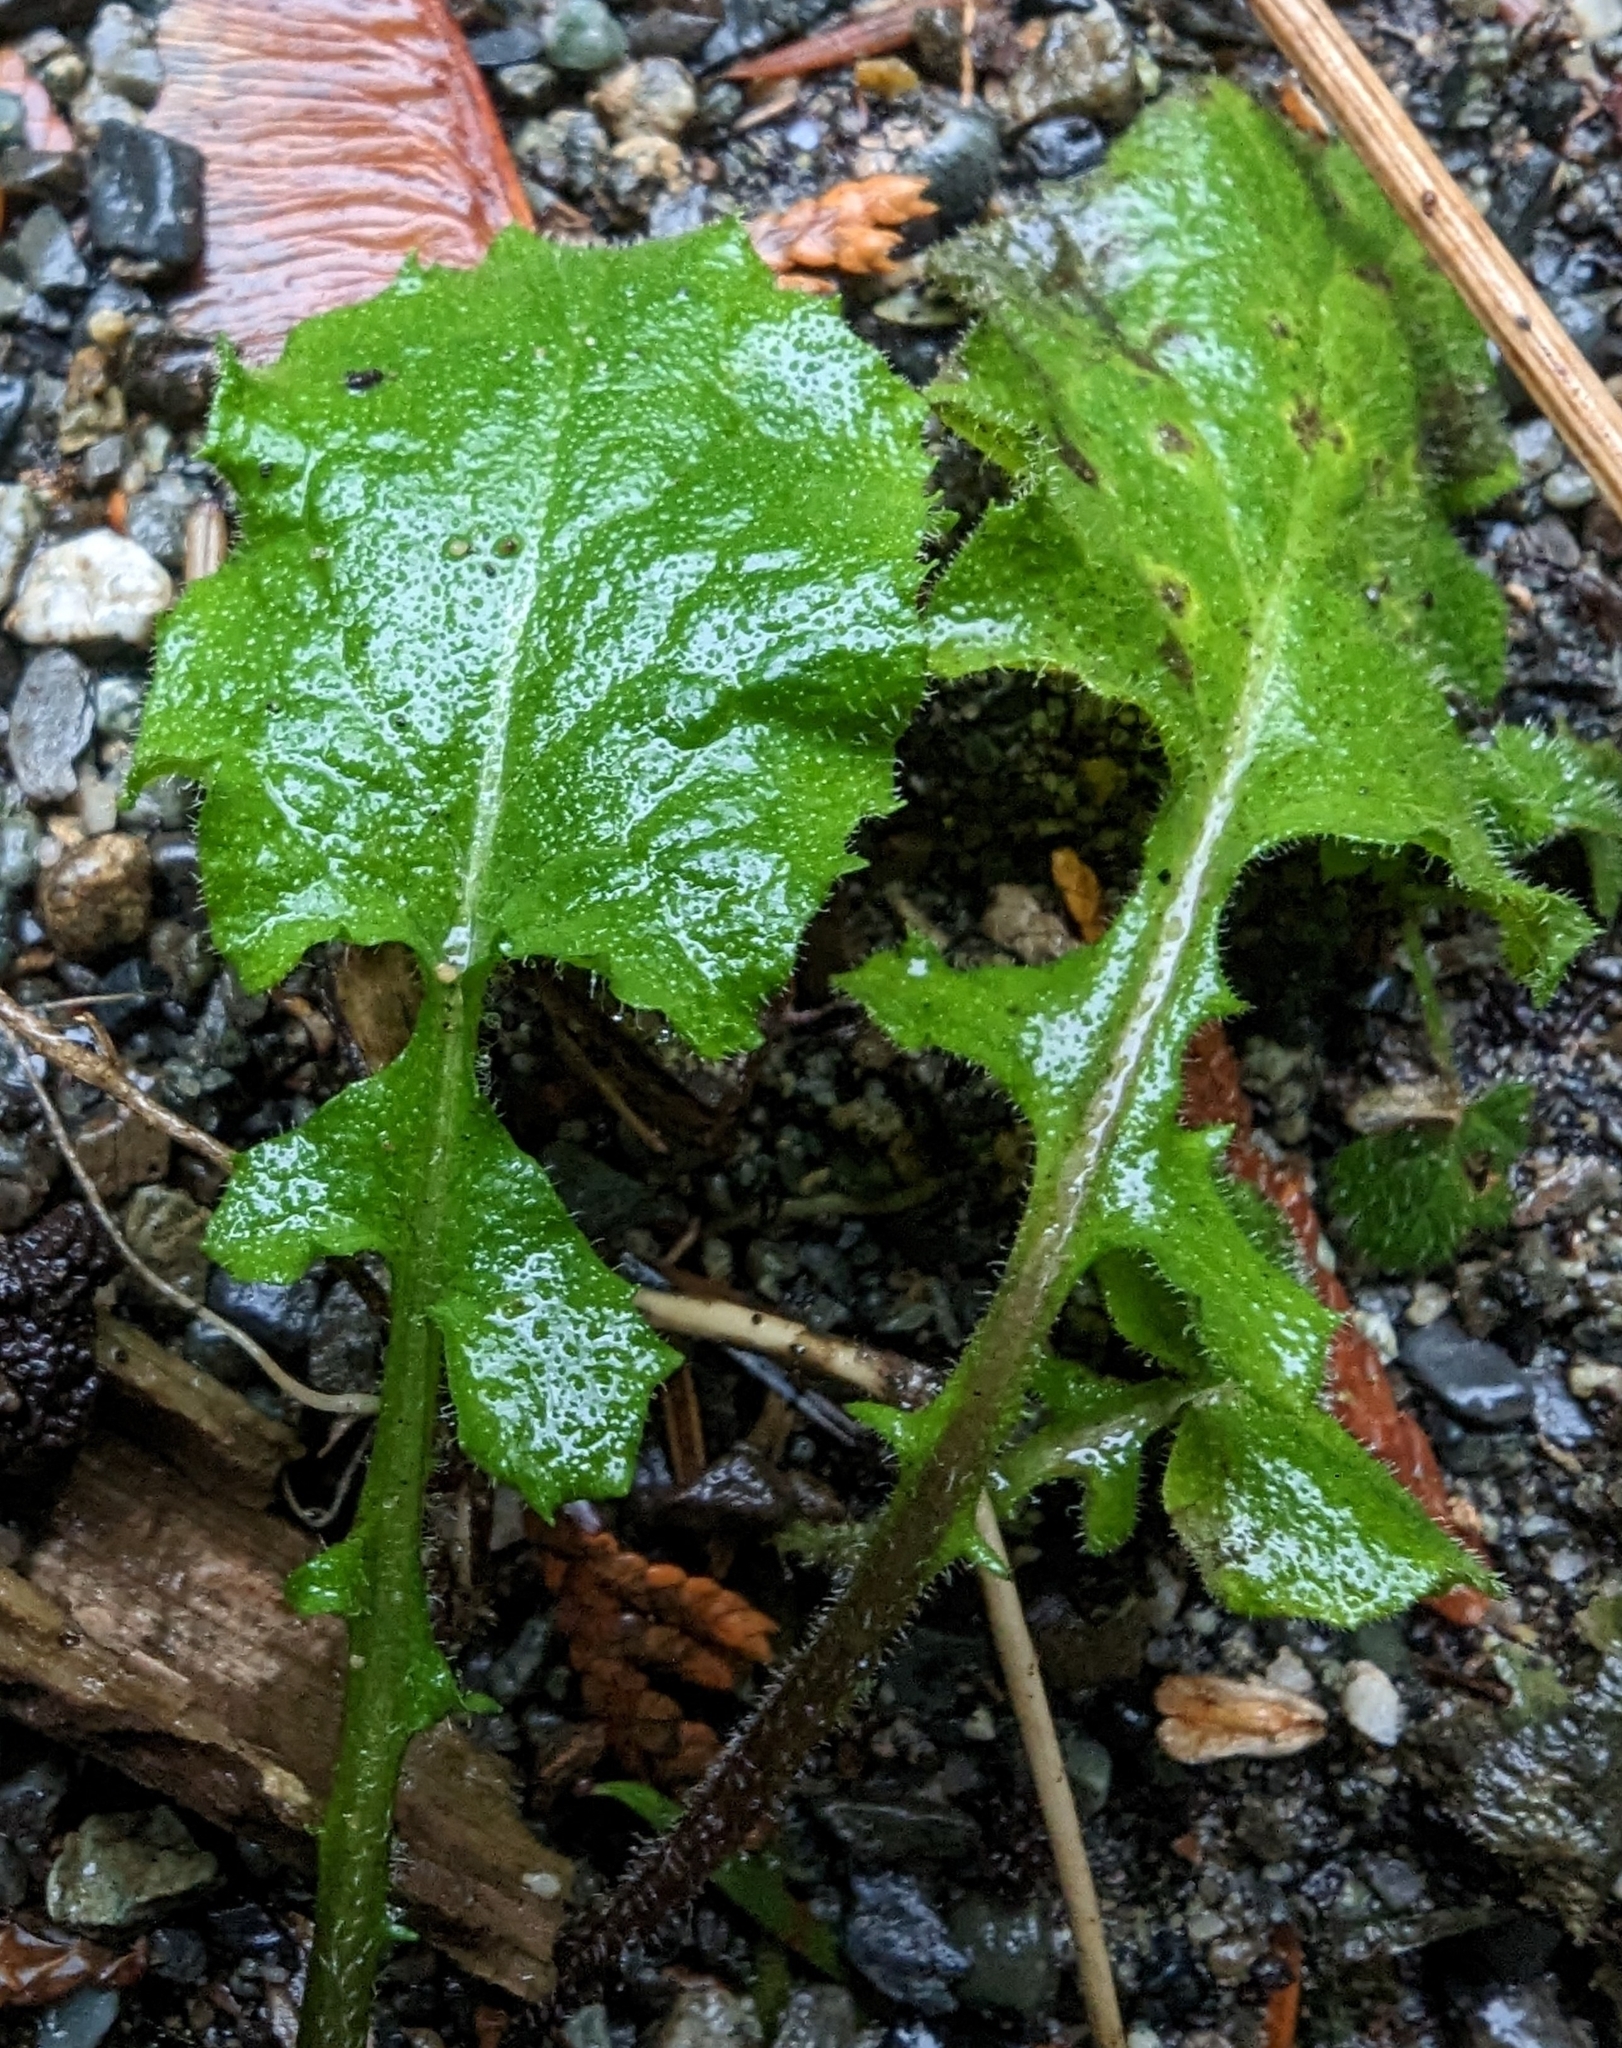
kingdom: Plantae
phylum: Tracheophyta
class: Magnoliopsida
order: Asterales
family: Asteraceae
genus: Lapsana
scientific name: Lapsana communis
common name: Nipplewort
